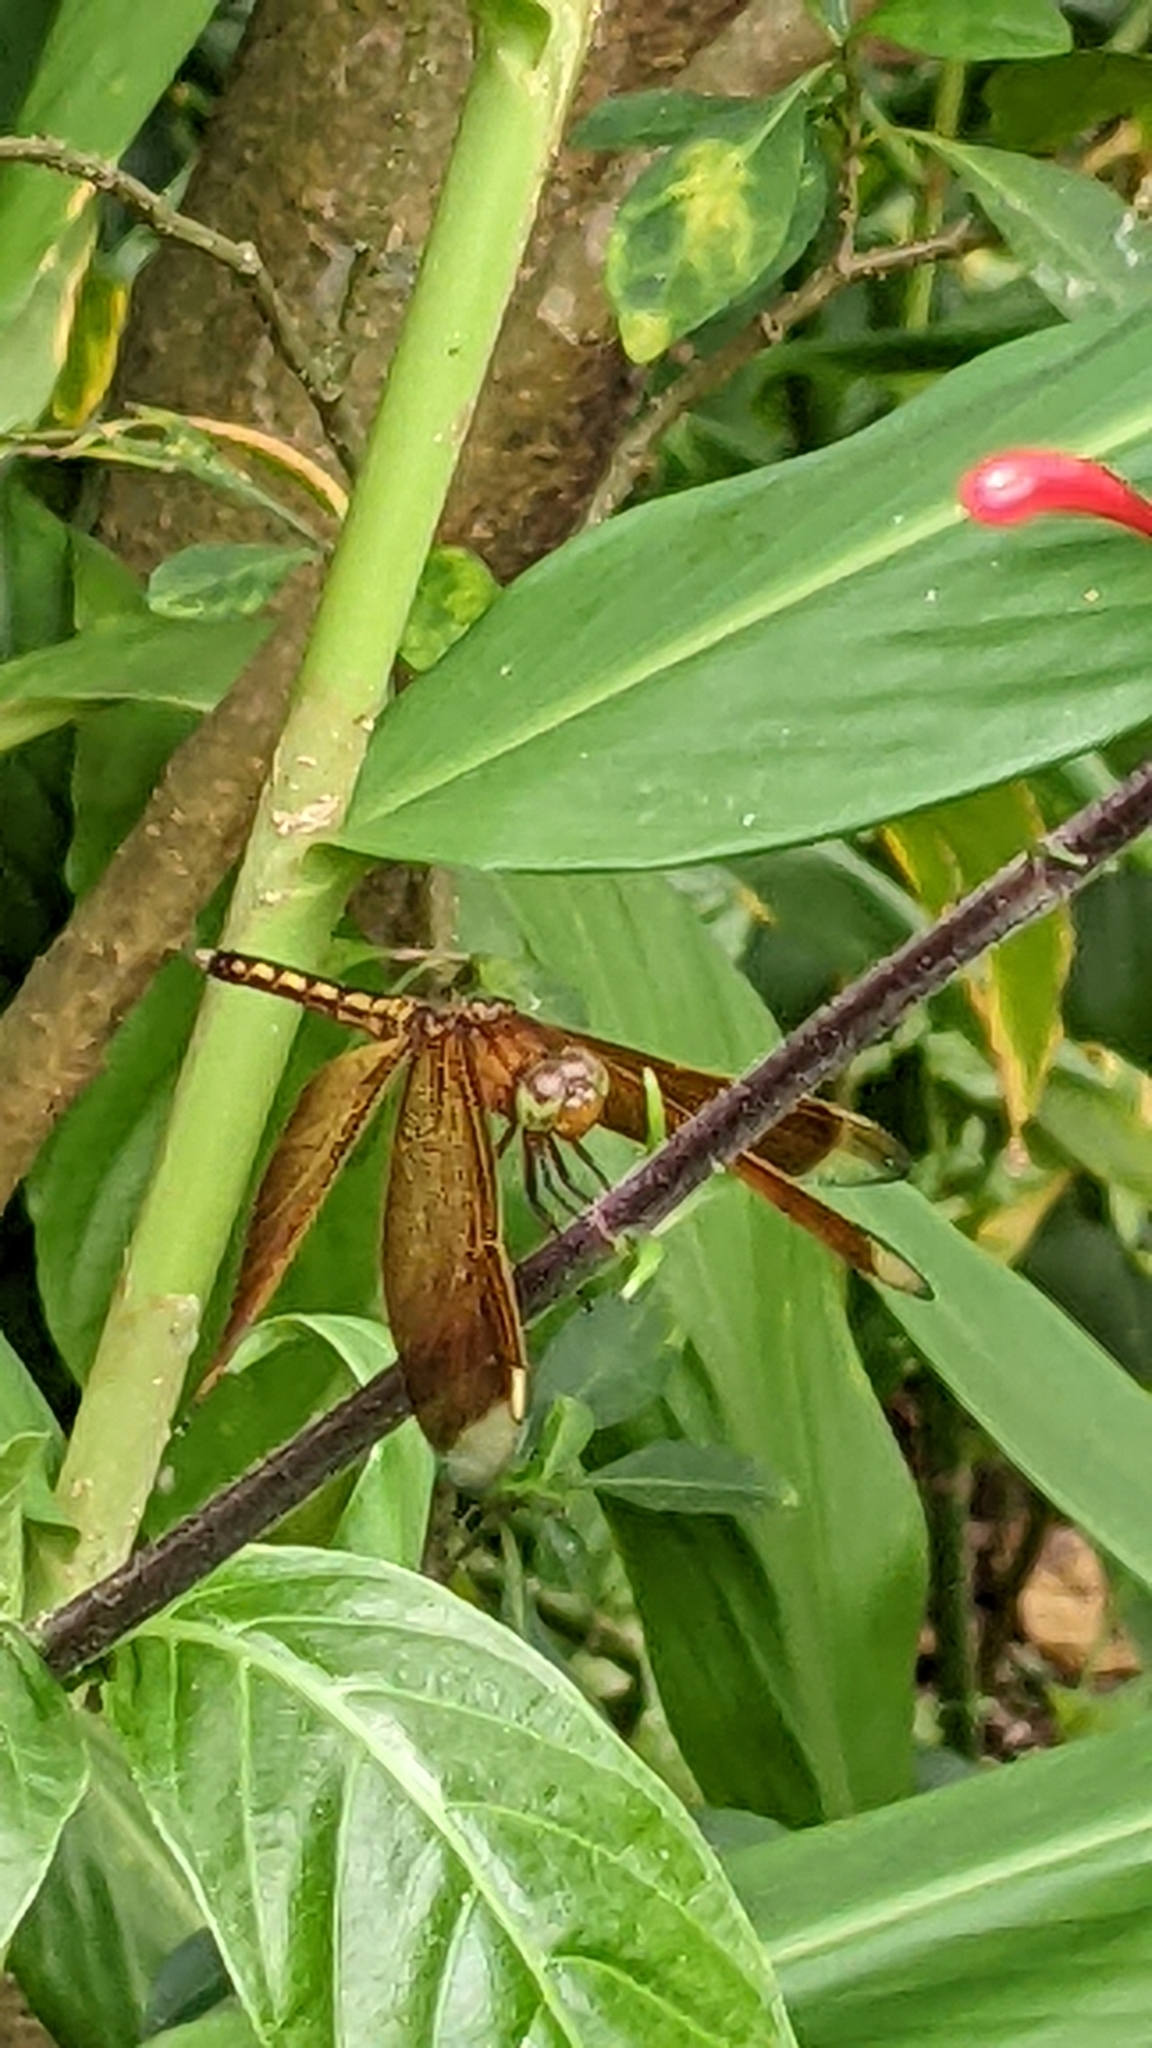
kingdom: Animalia
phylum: Arthropoda
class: Insecta
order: Odonata
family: Libellulidae
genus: Neurothemis
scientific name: Neurothemis taiwanensis
